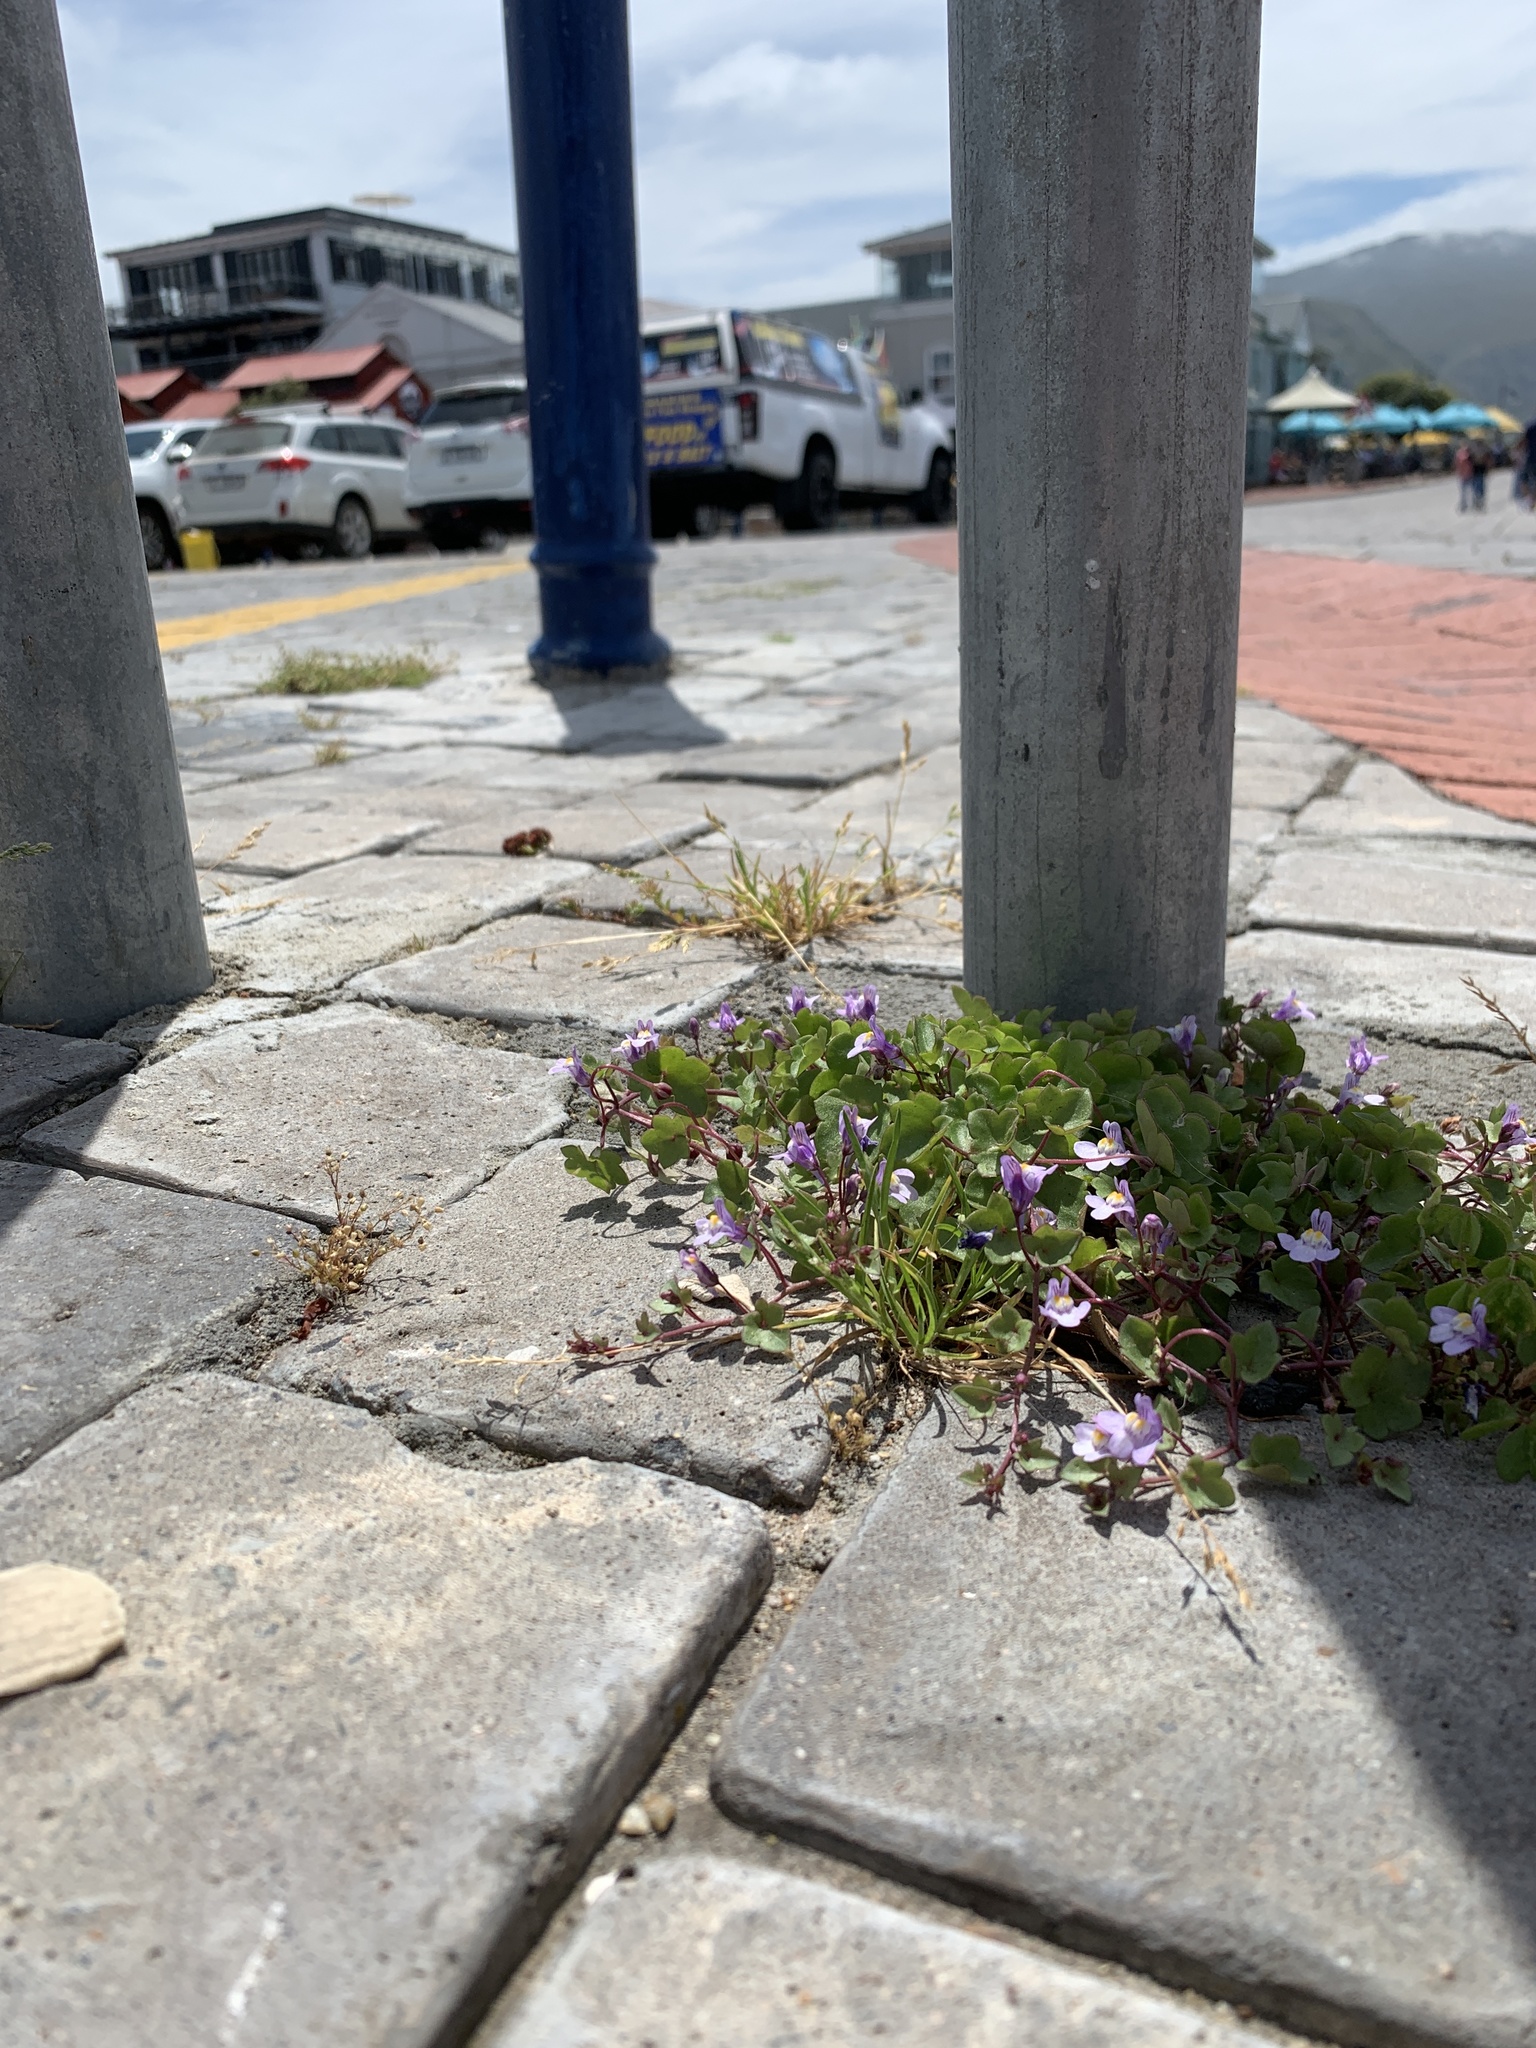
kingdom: Plantae
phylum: Tracheophyta
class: Magnoliopsida
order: Lamiales
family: Plantaginaceae
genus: Cymbalaria
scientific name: Cymbalaria muralis
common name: Ivy-leaved toadflax
